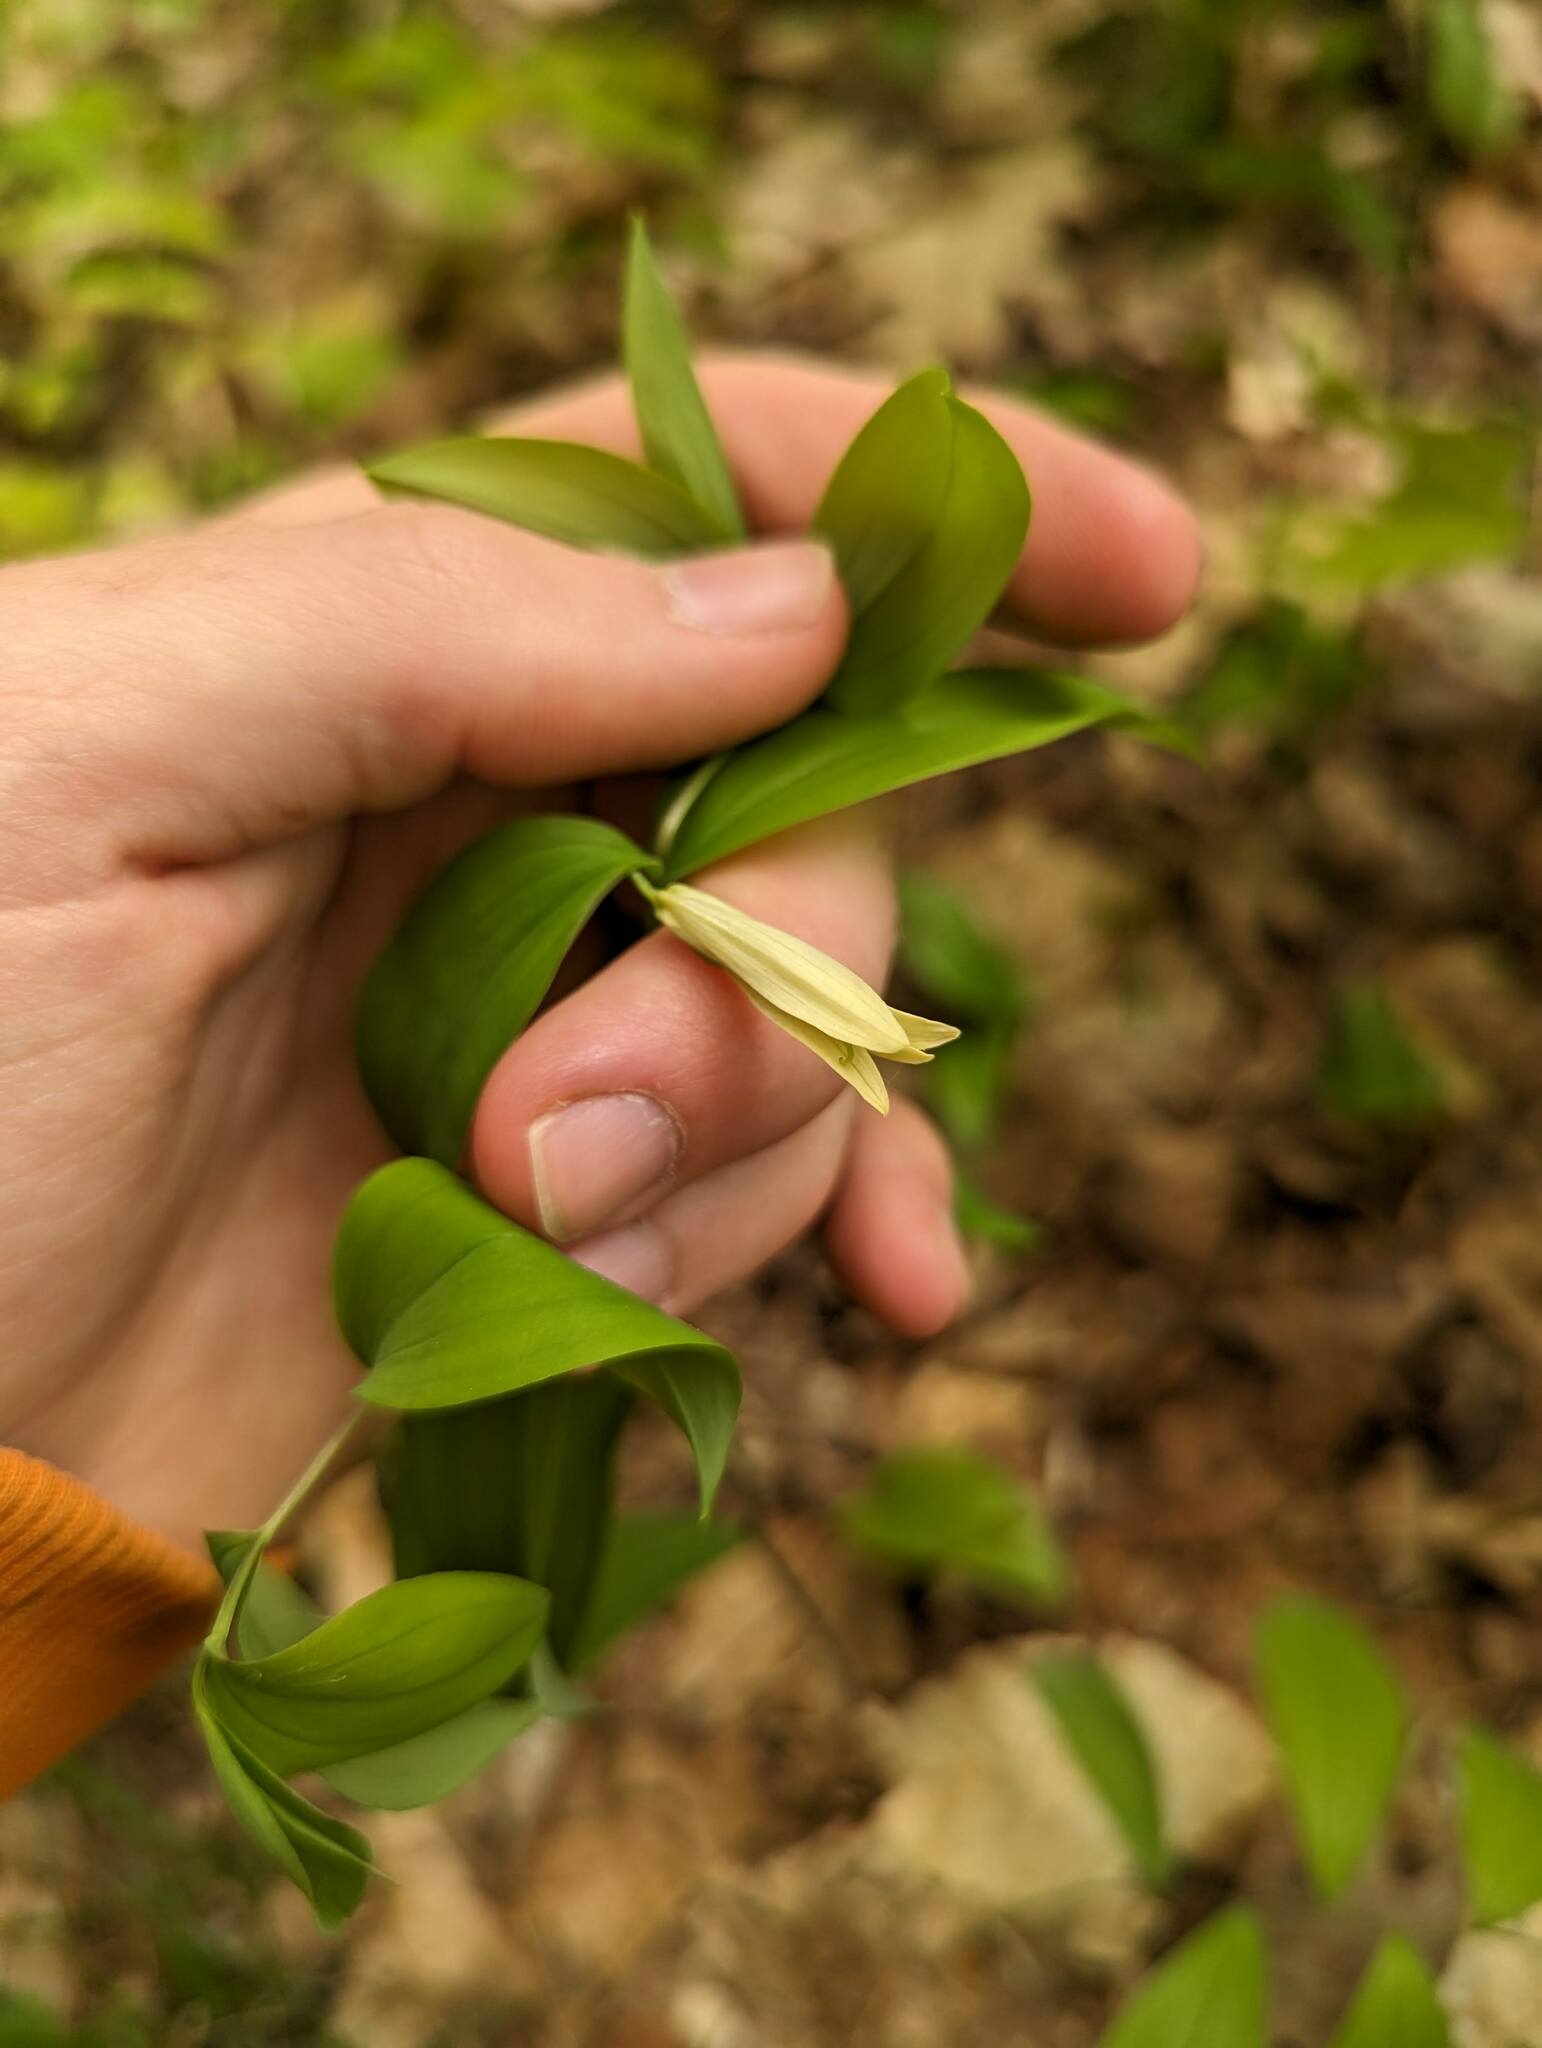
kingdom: Plantae
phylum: Tracheophyta
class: Liliopsida
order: Liliales
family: Colchicaceae
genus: Uvularia
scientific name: Uvularia sessilifolia
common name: Straw-lily
